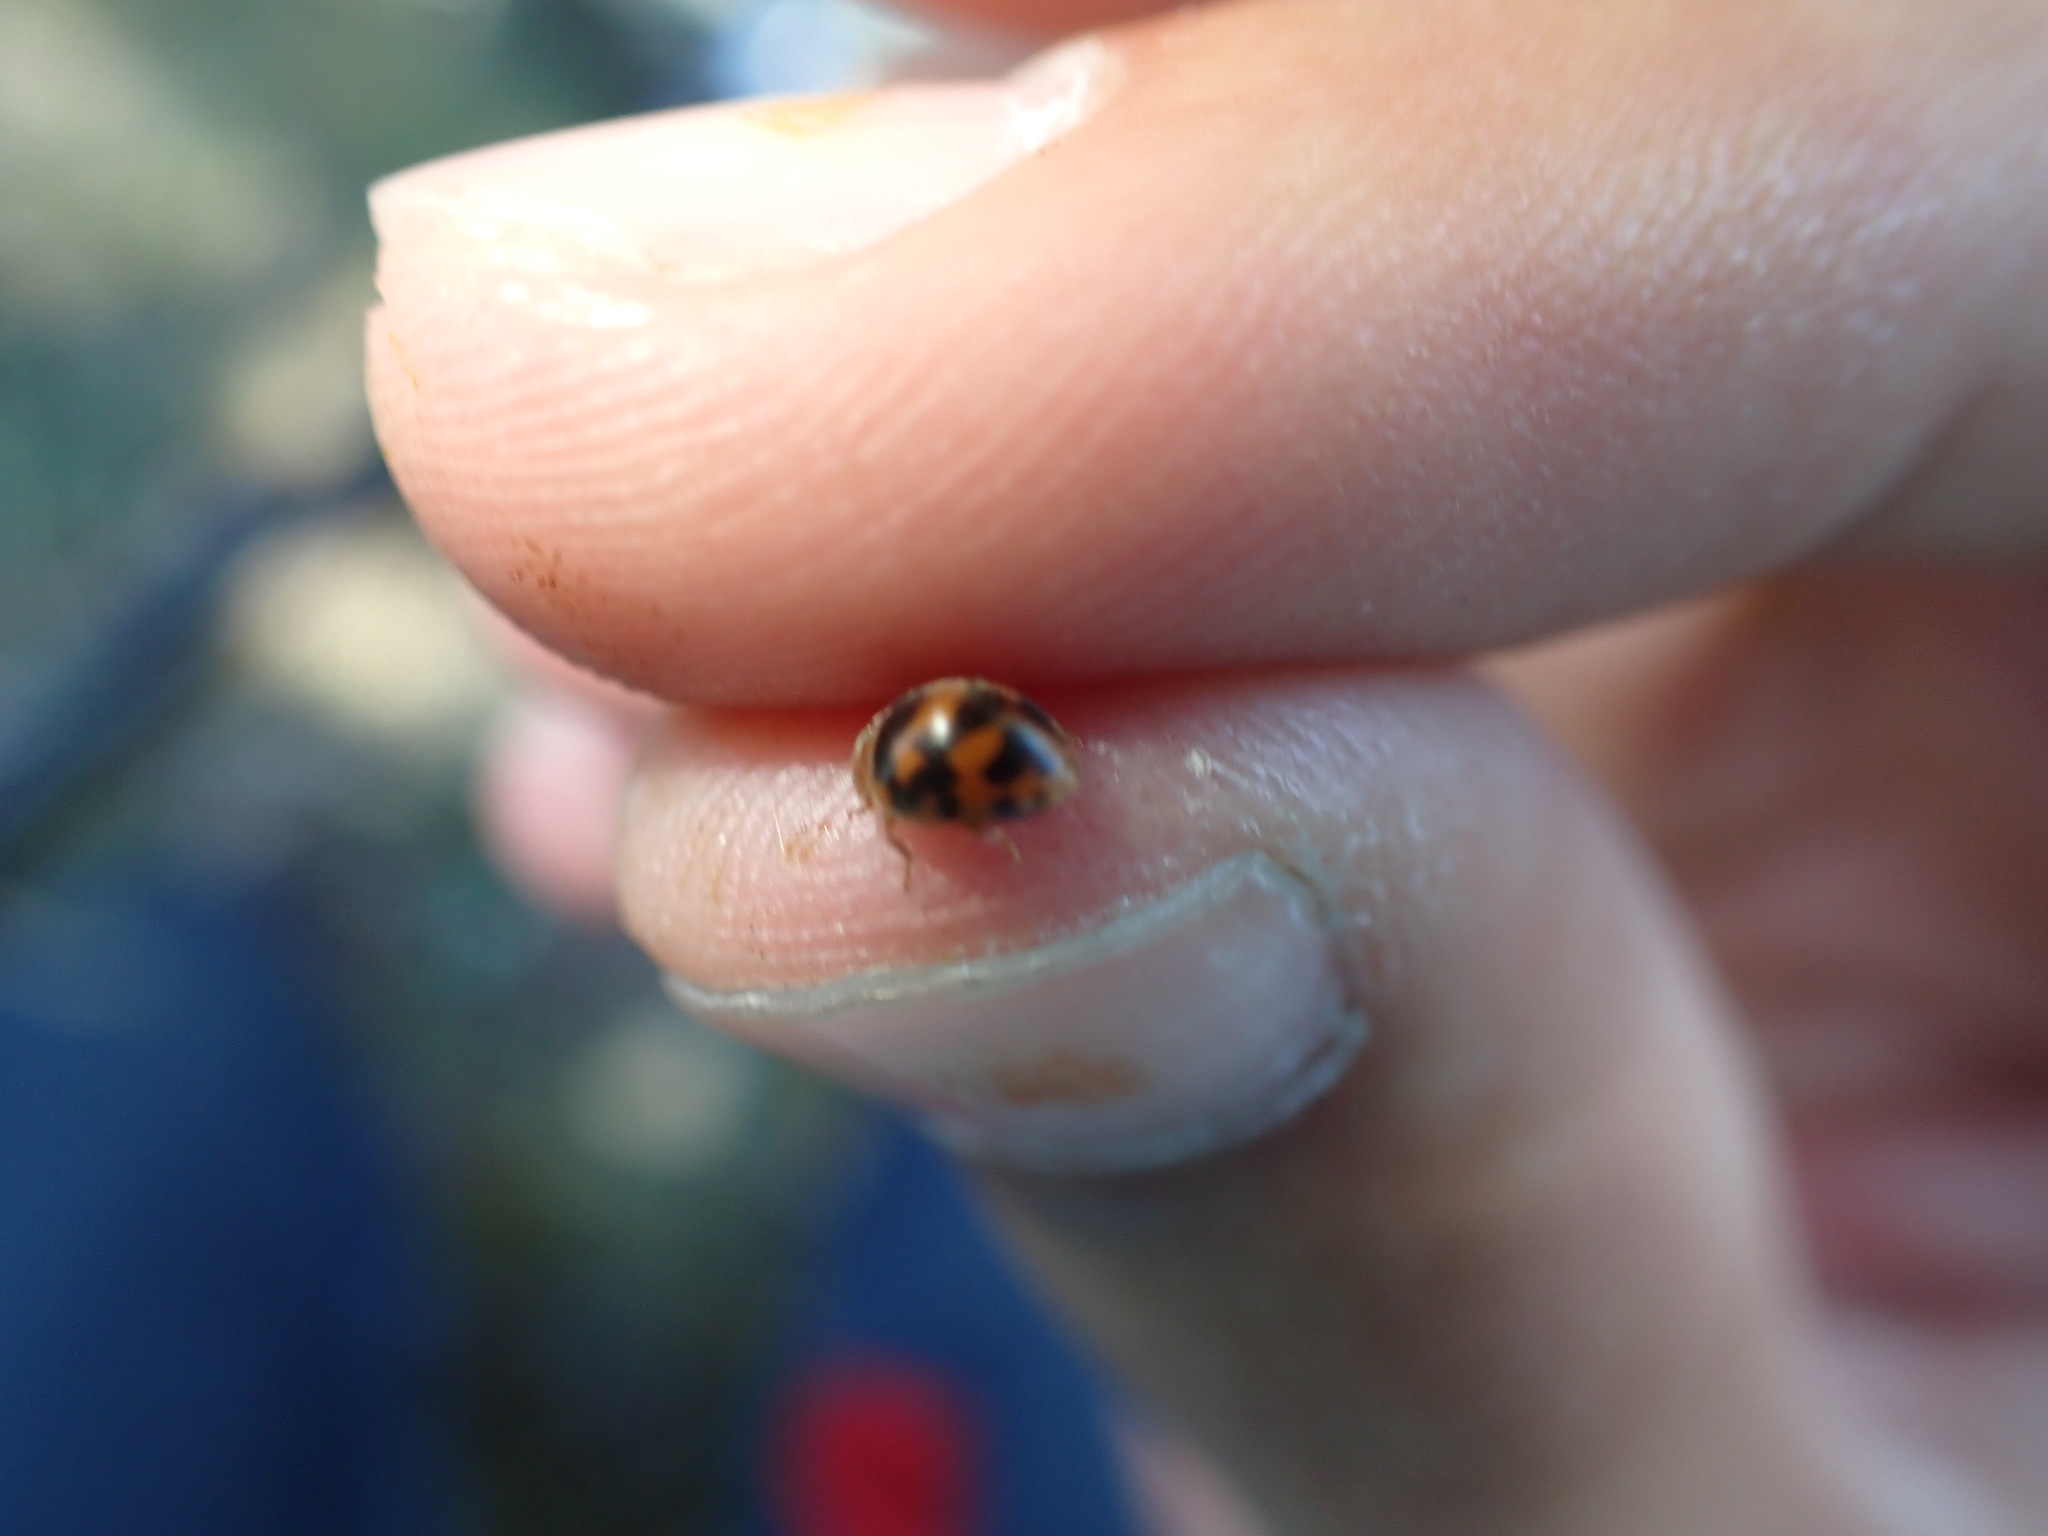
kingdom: Animalia
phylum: Arthropoda
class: Insecta
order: Coleoptera
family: Coccinellidae
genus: Subcoccinella
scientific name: Subcoccinella vigintiquatuorpunctata
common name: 24-spot ladybird
